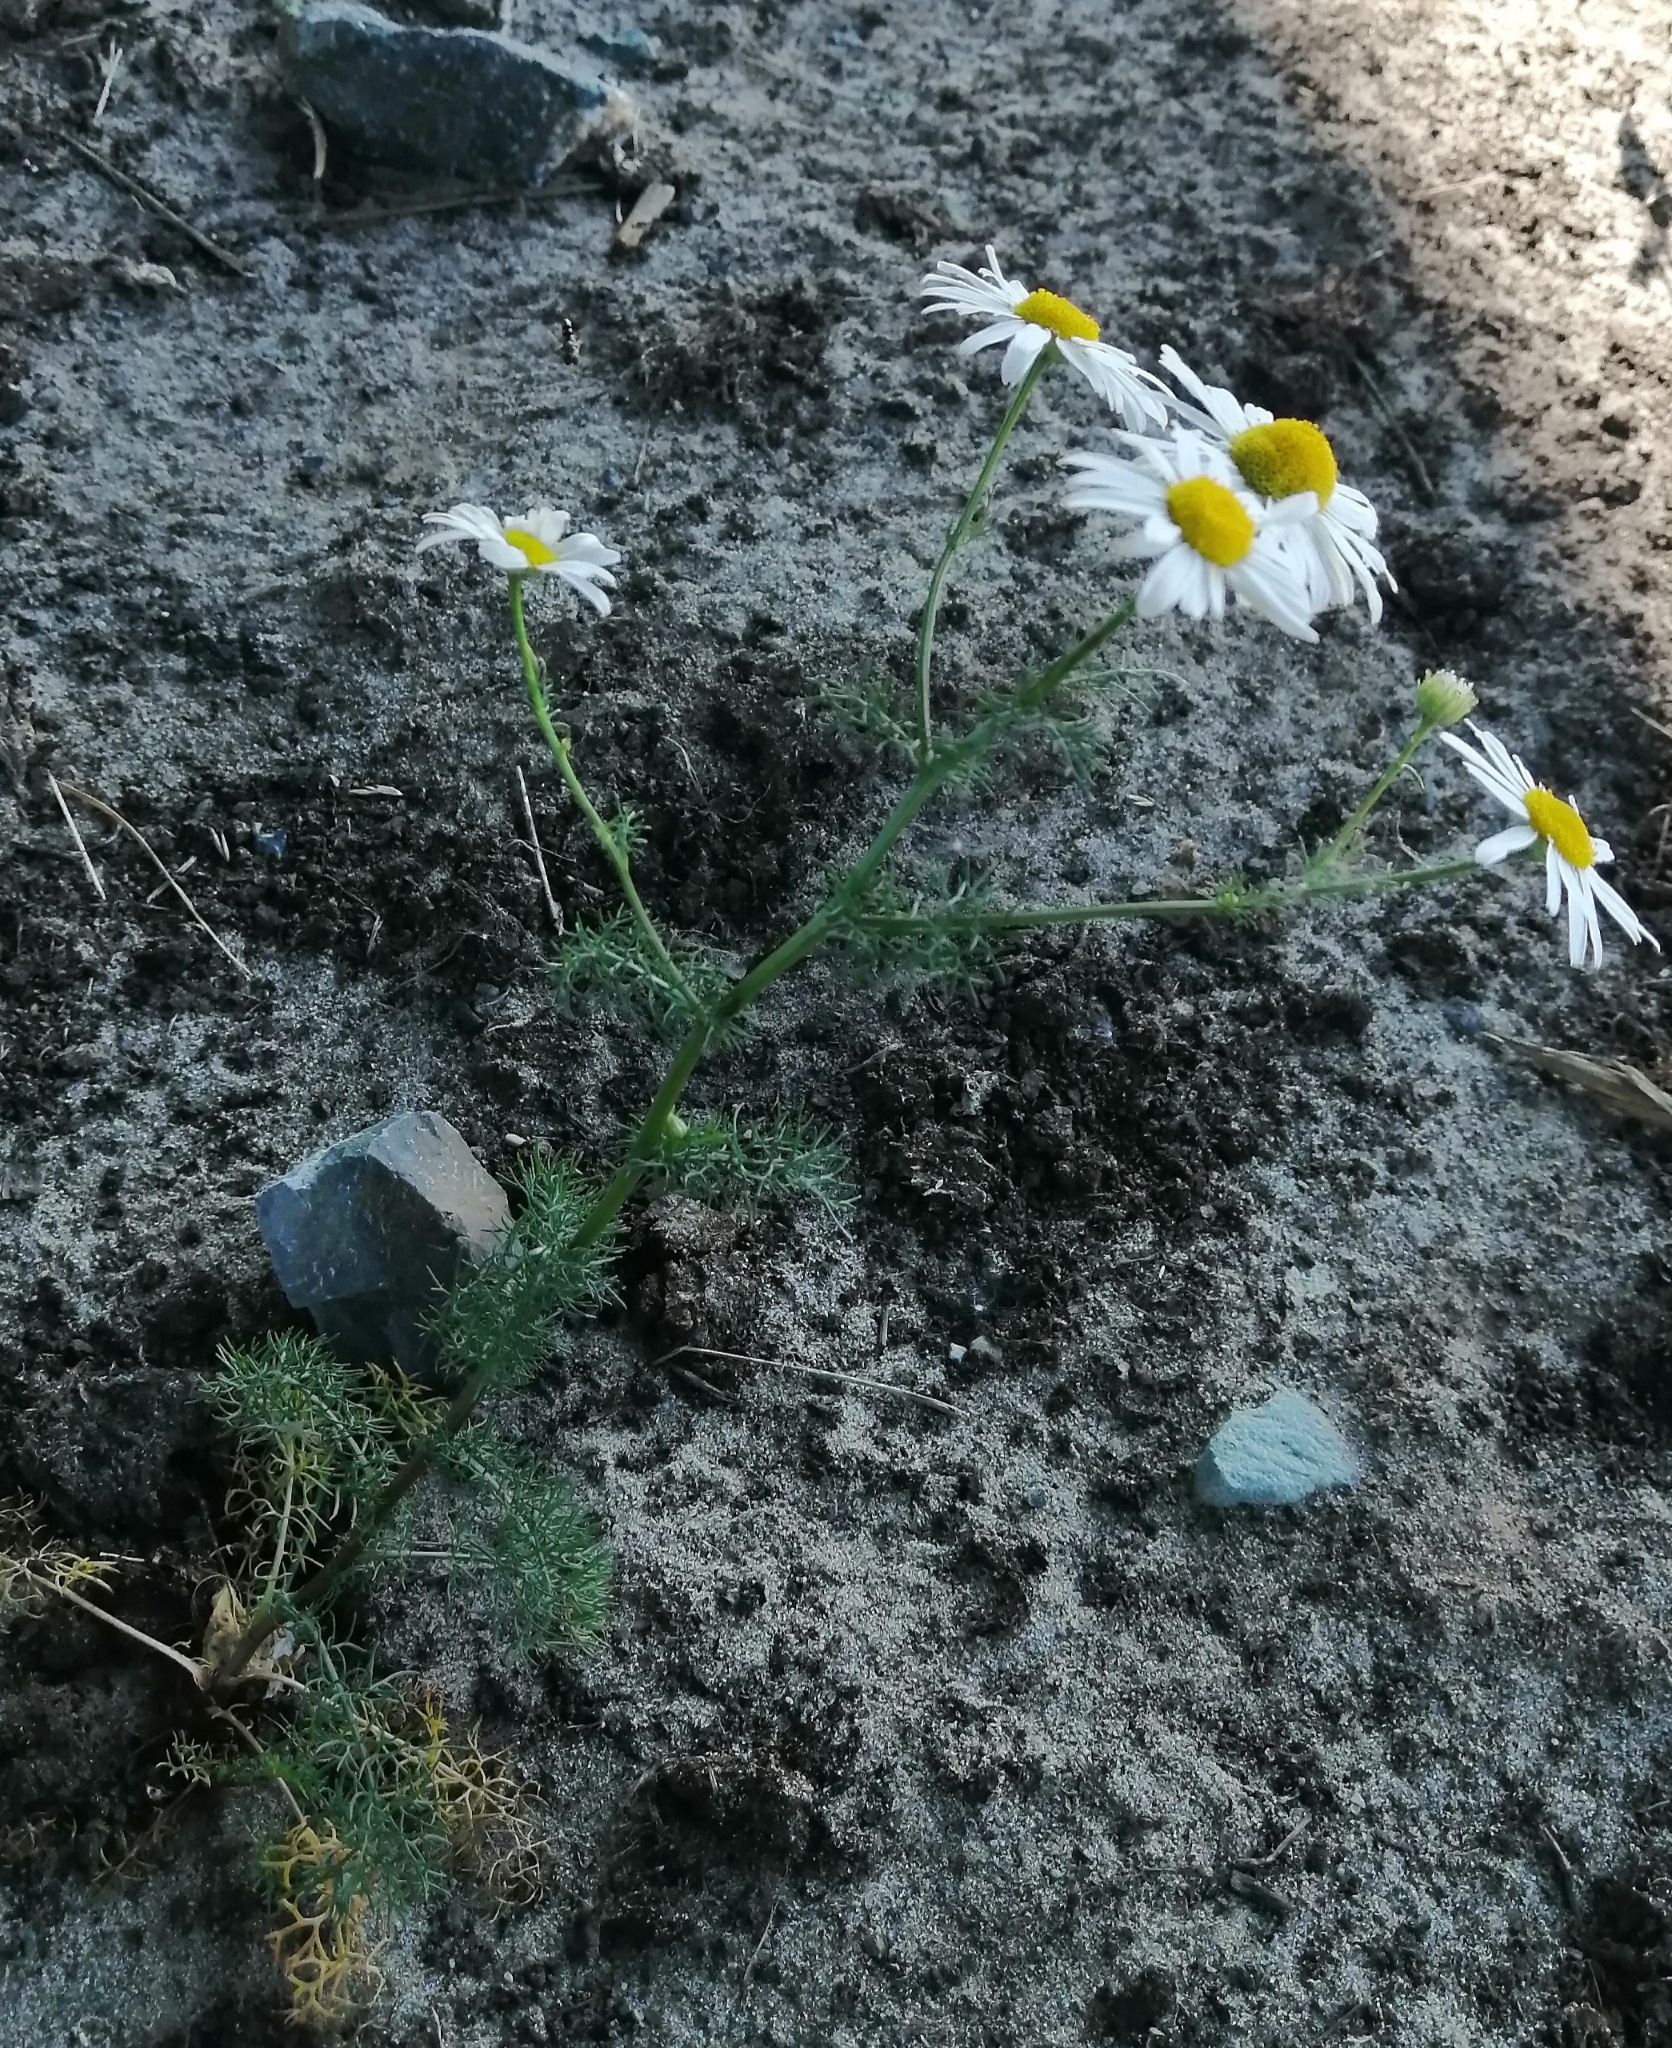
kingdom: Plantae
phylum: Tracheophyta
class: Magnoliopsida
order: Asterales
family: Asteraceae
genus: Tripleurospermum
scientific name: Tripleurospermum inodorum
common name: Scentless mayweed
